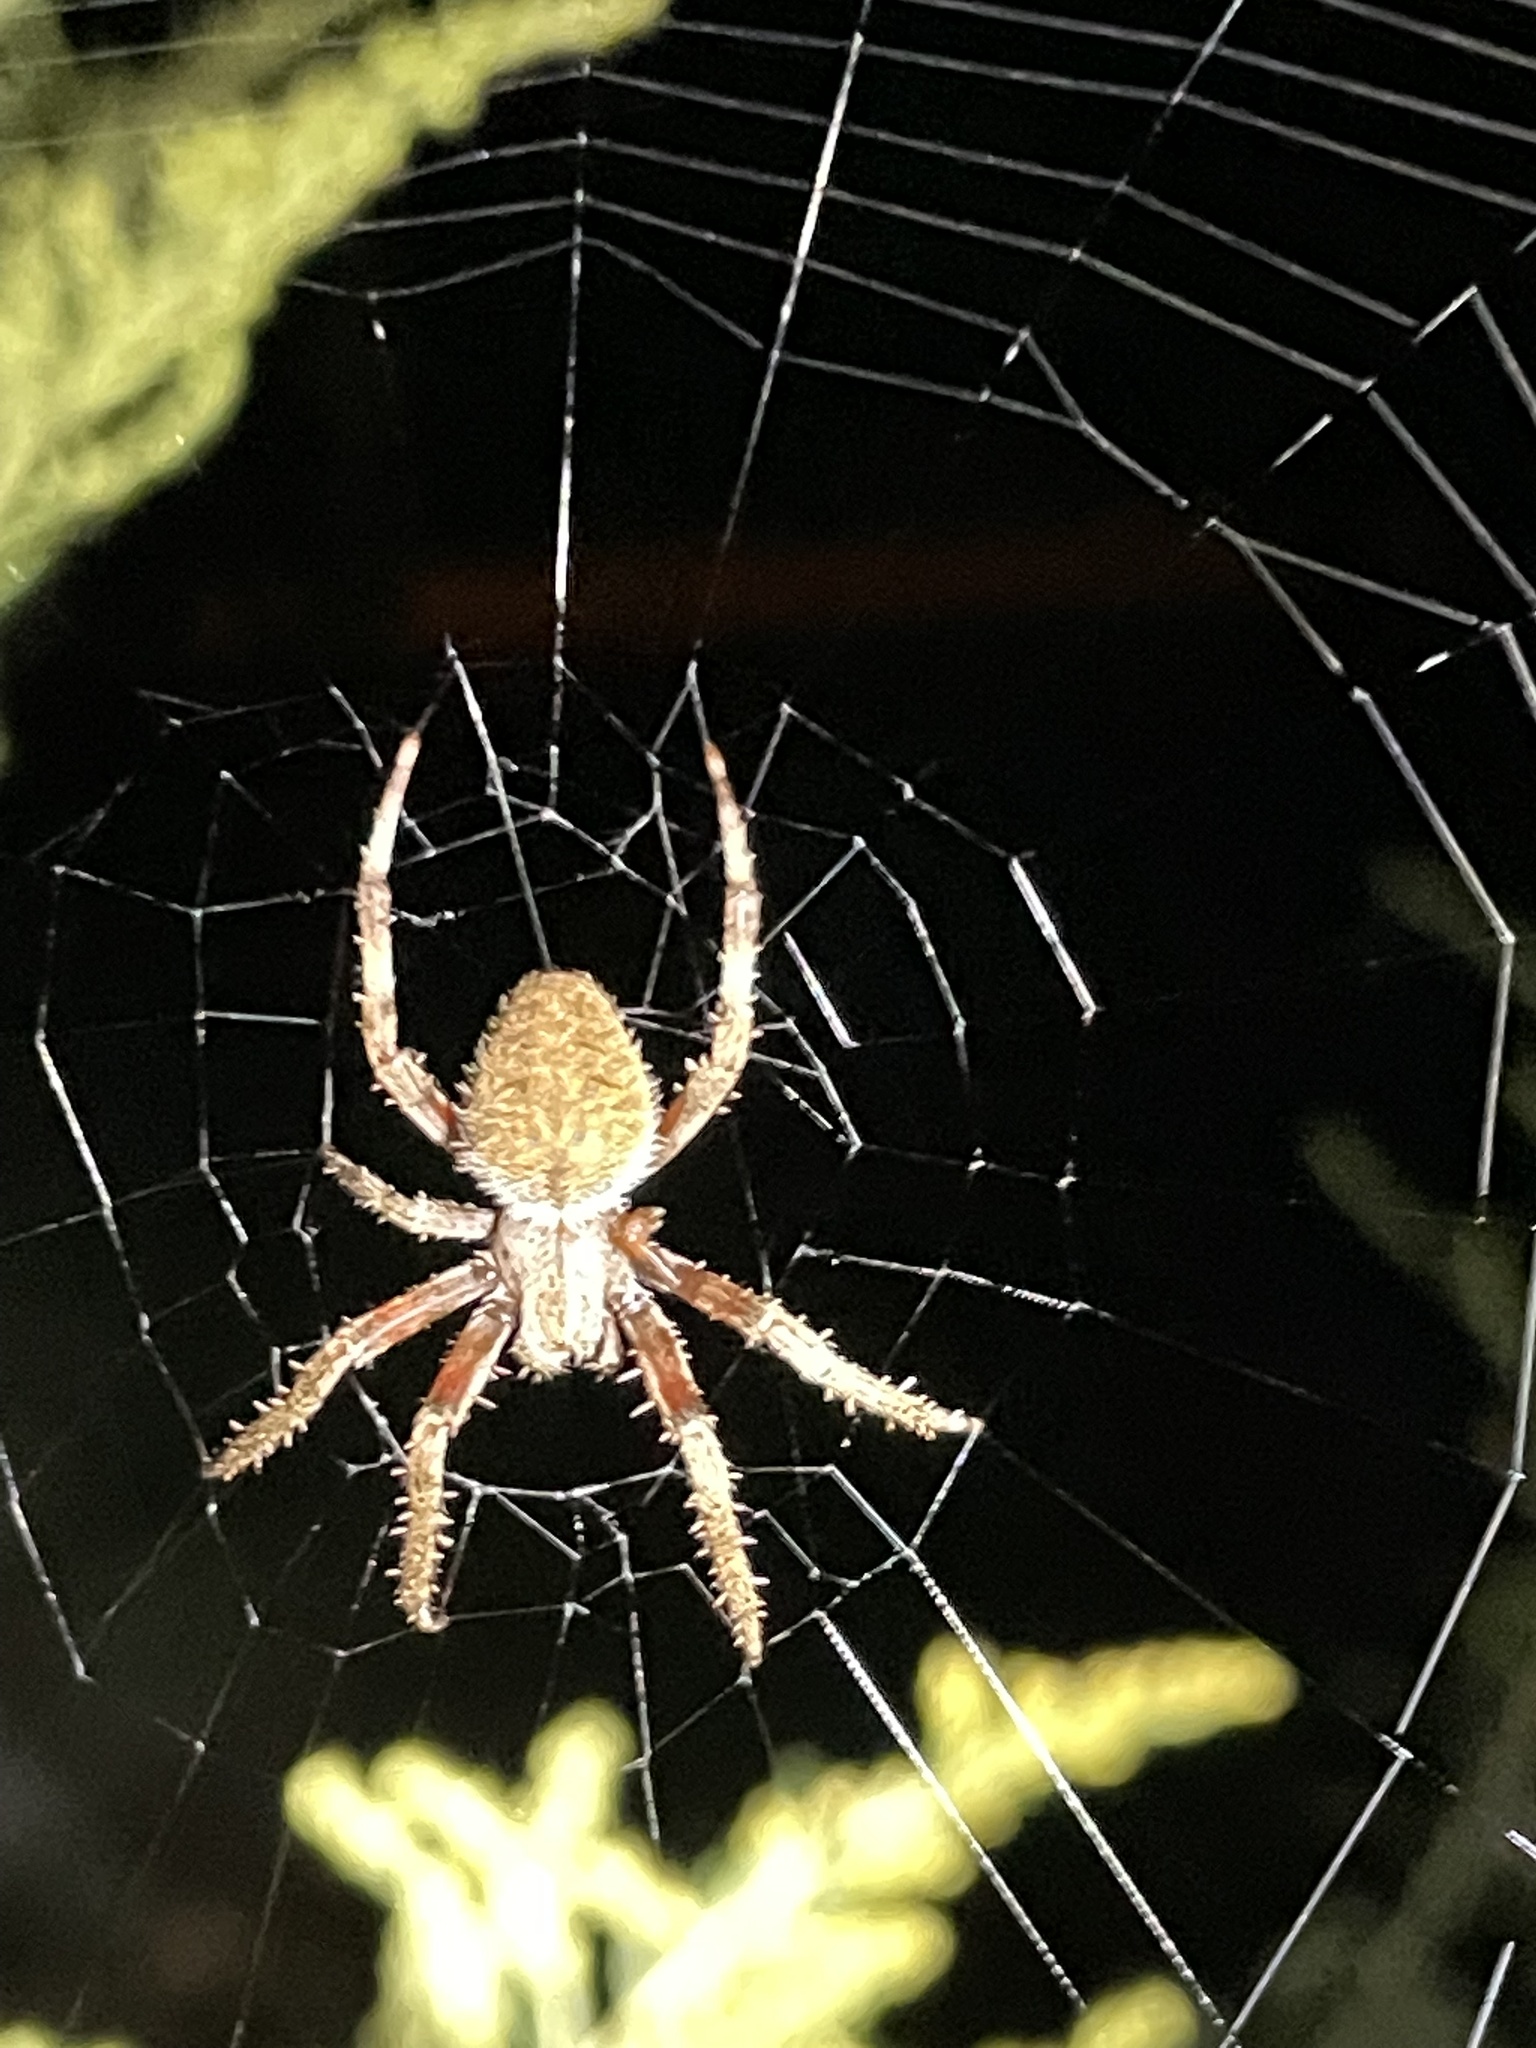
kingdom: Animalia
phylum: Arthropoda
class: Arachnida
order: Araneae
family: Araneidae
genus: Neoscona
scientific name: Neoscona crucifera
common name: Spotted orbweaver
